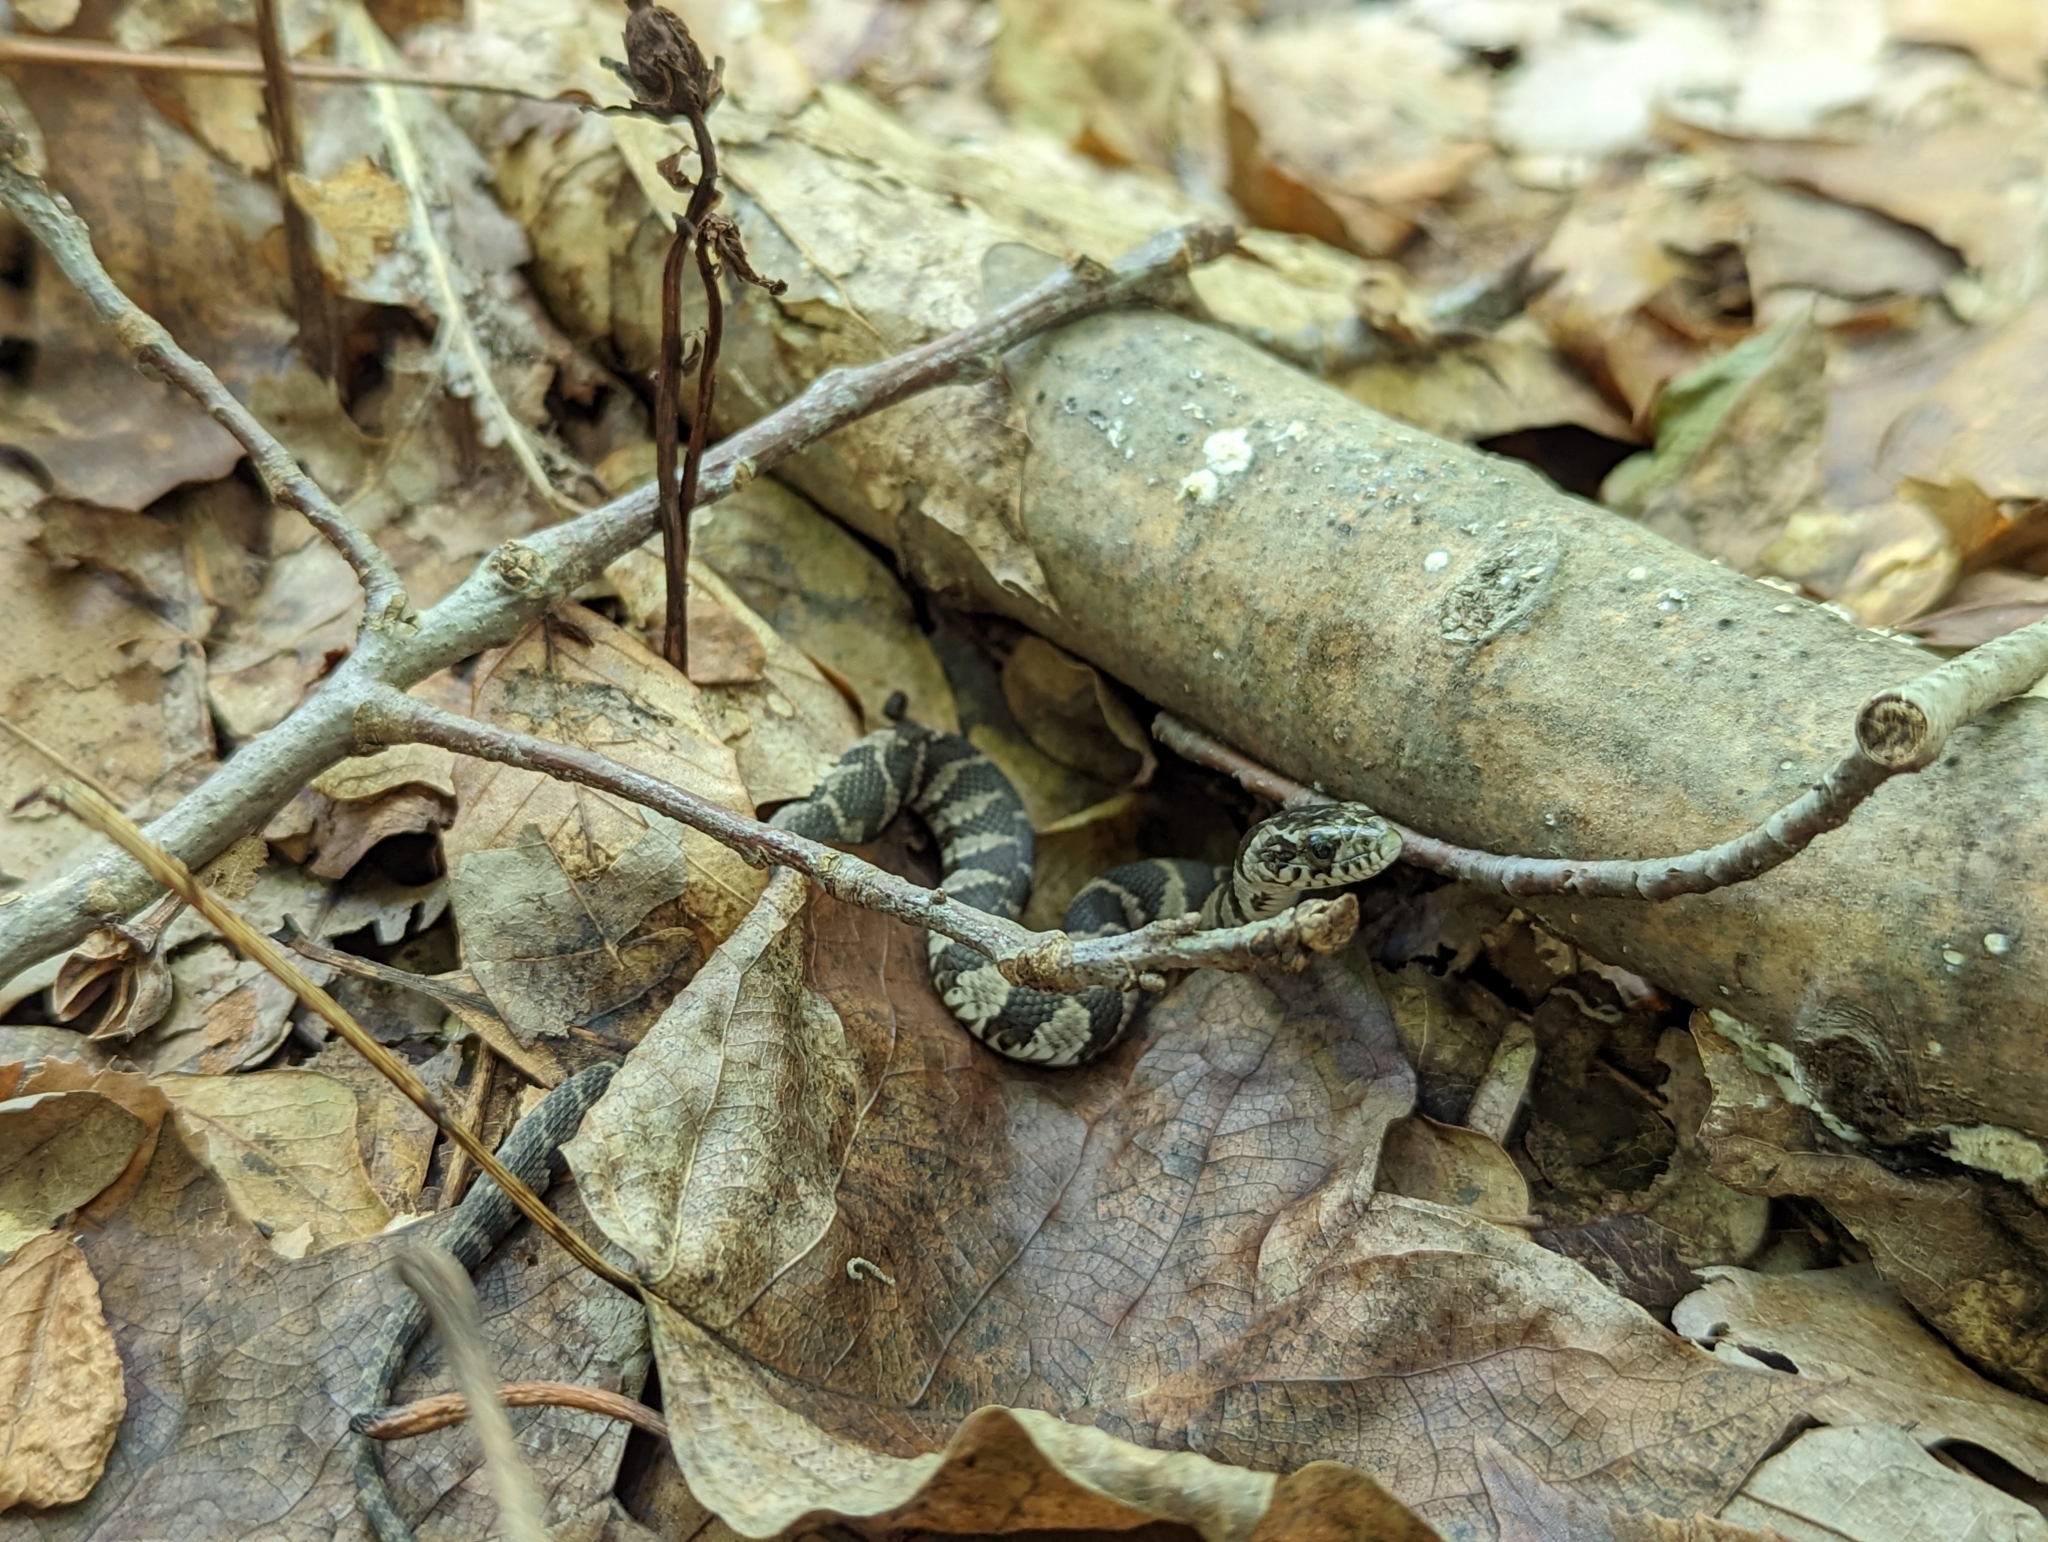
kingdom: Animalia
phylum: Chordata
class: Squamata
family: Colubridae
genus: Nerodia
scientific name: Nerodia sipedon
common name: Northern water snake
